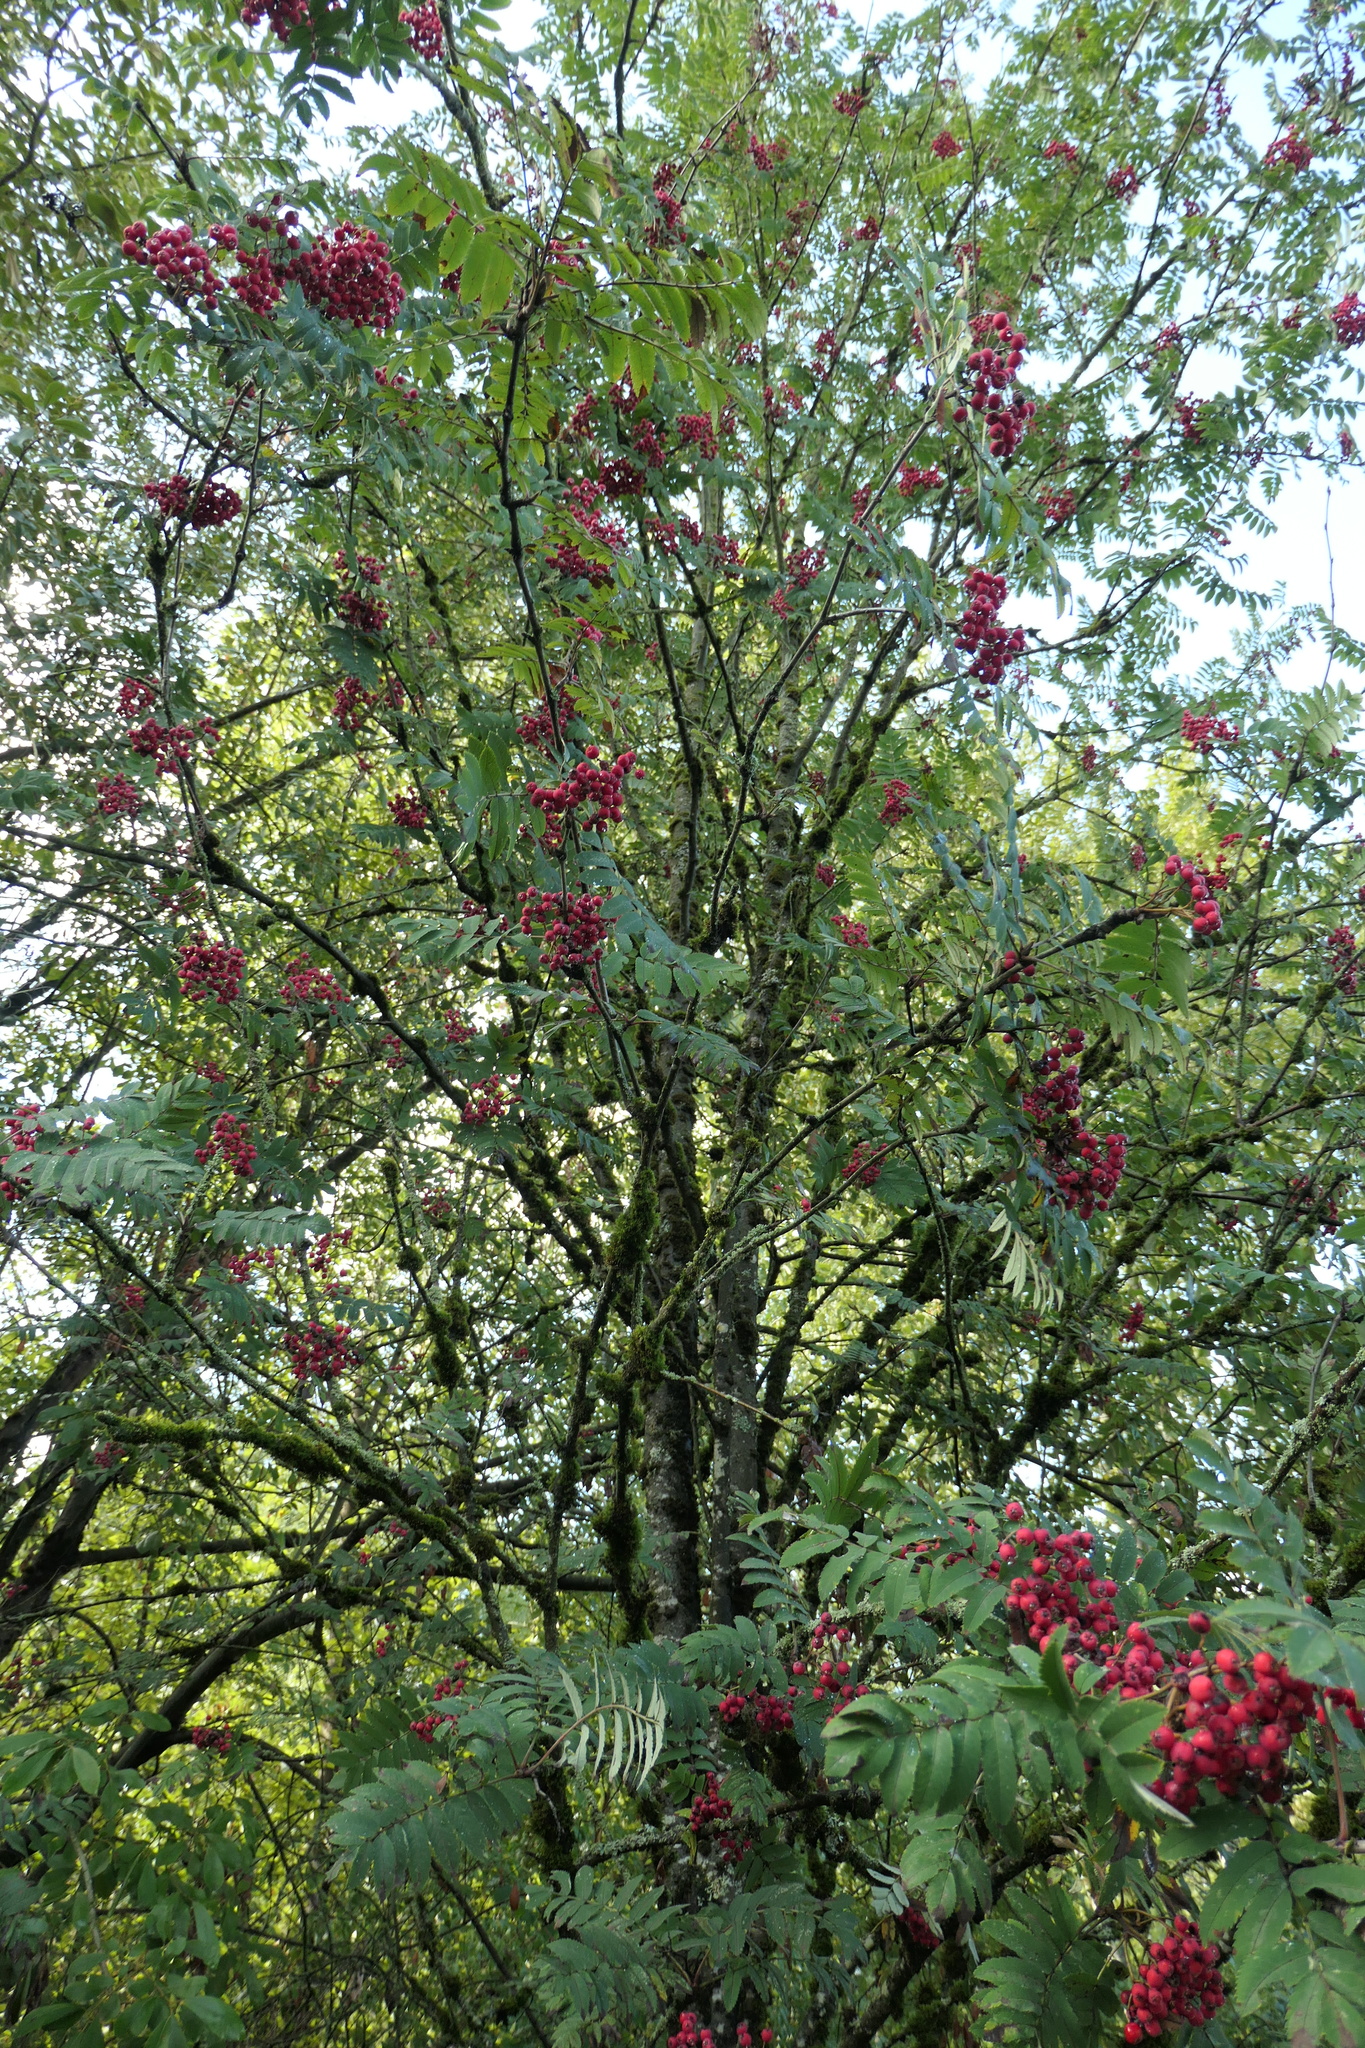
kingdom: Plantae
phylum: Tracheophyta
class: Magnoliopsida
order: Rosales
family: Rosaceae
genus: Sorbus
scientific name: Sorbus aucuparia
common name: Rowan
